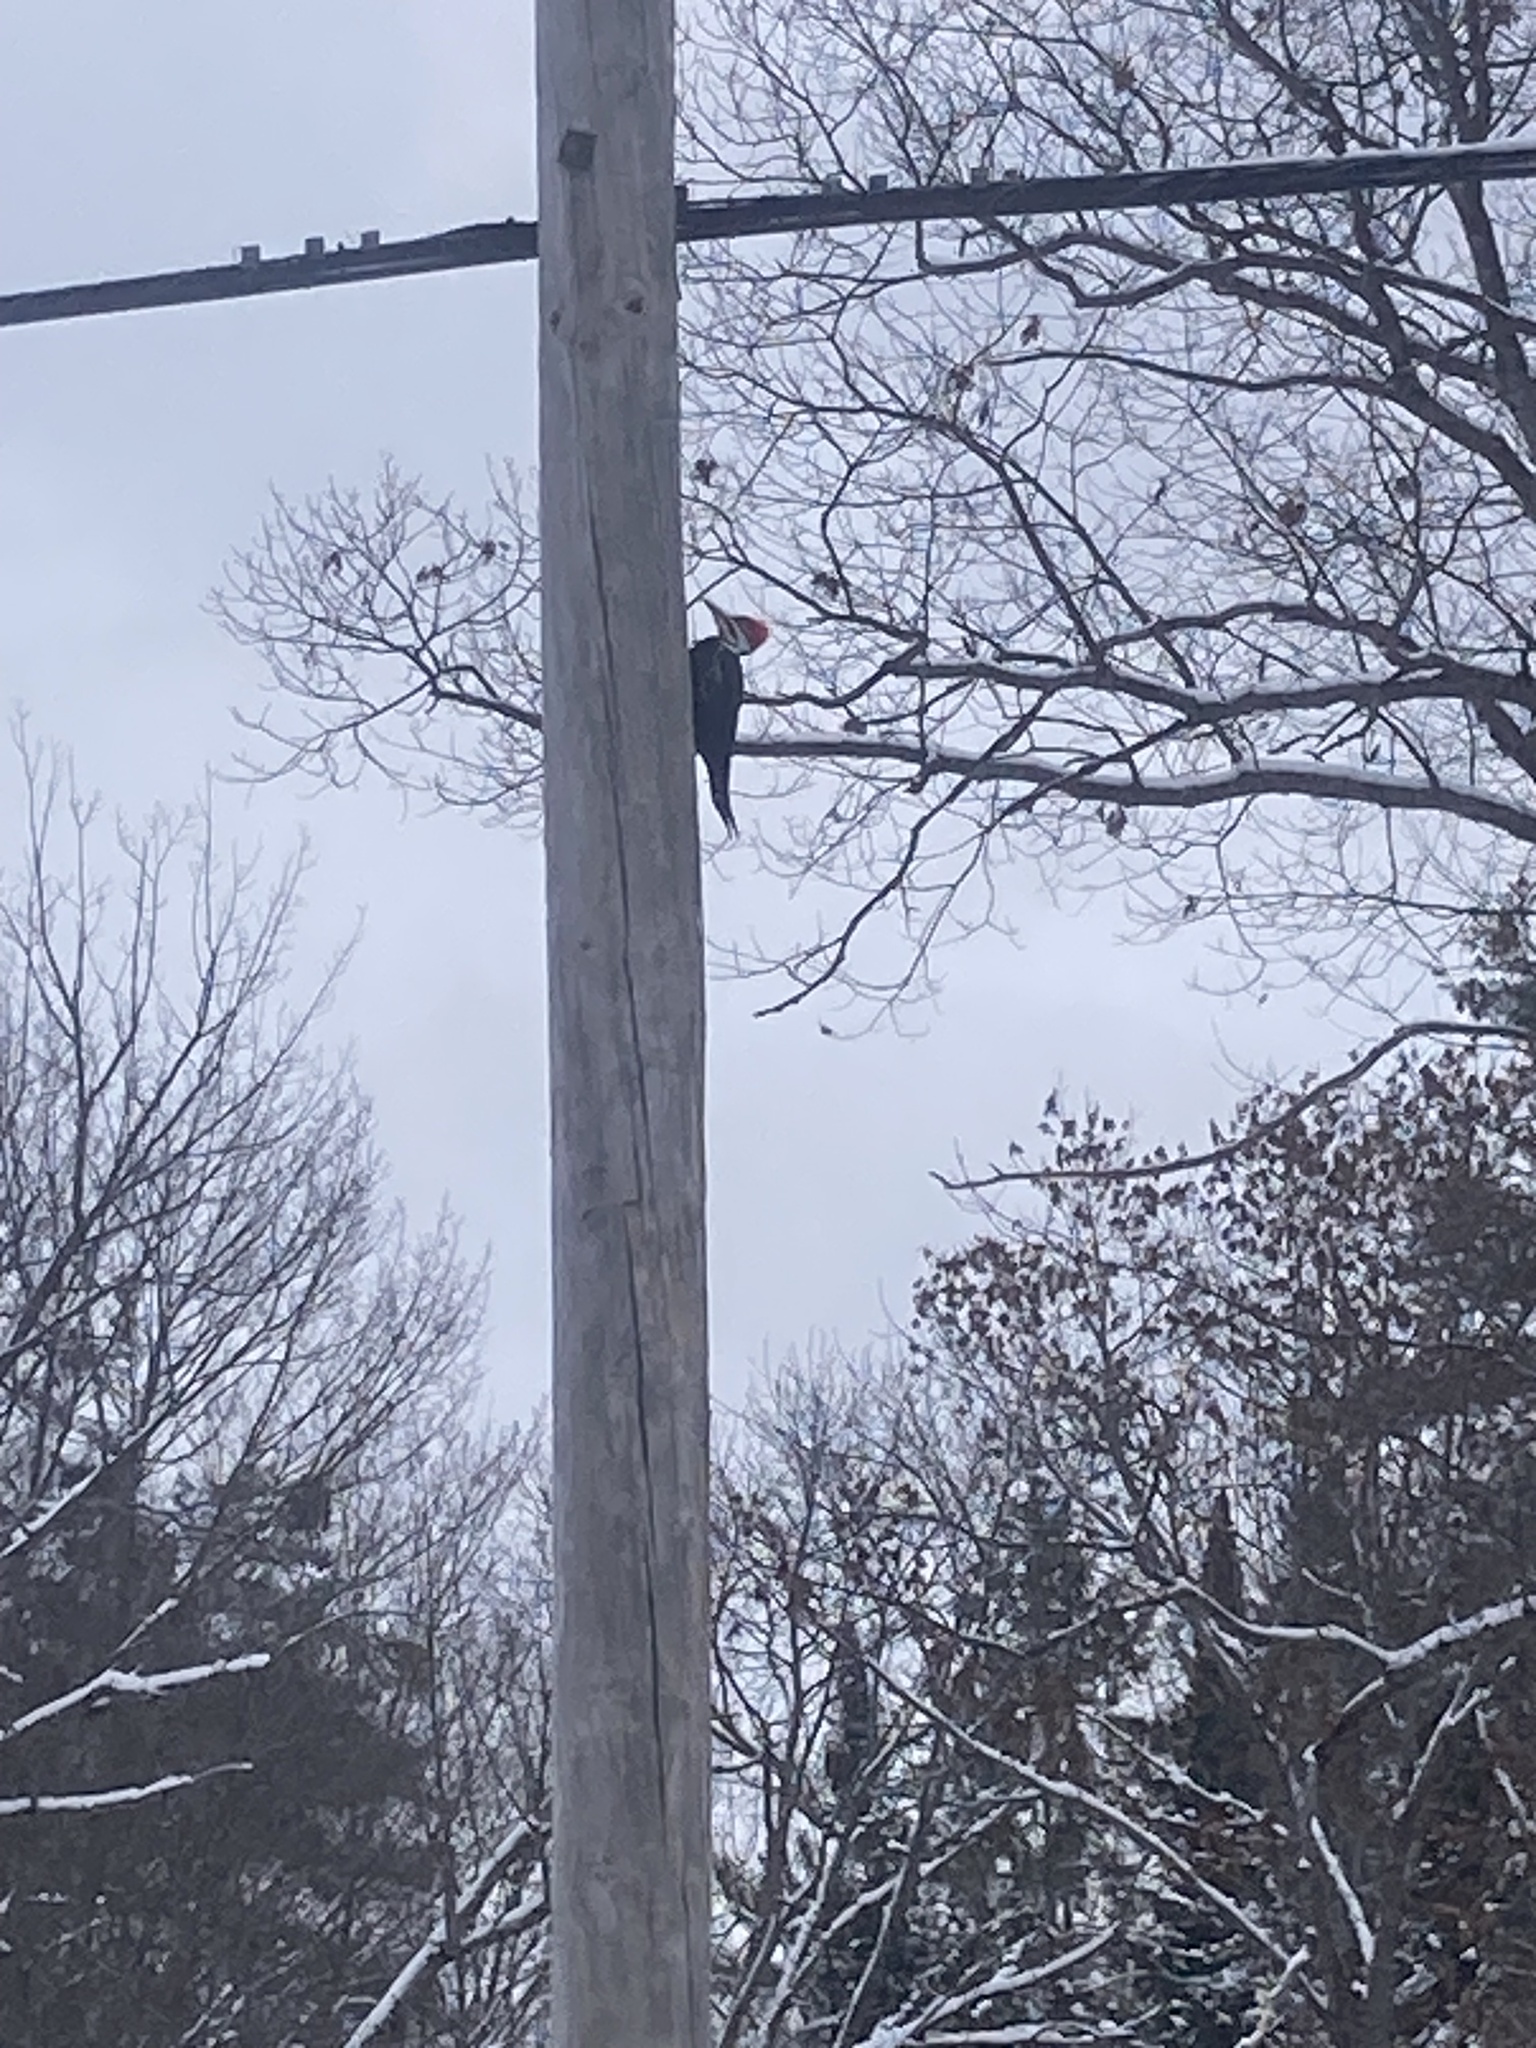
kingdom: Animalia
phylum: Chordata
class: Aves
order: Piciformes
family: Picidae
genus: Dryocopus
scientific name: Dryocopus pileatus
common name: Pileated woodpecker
